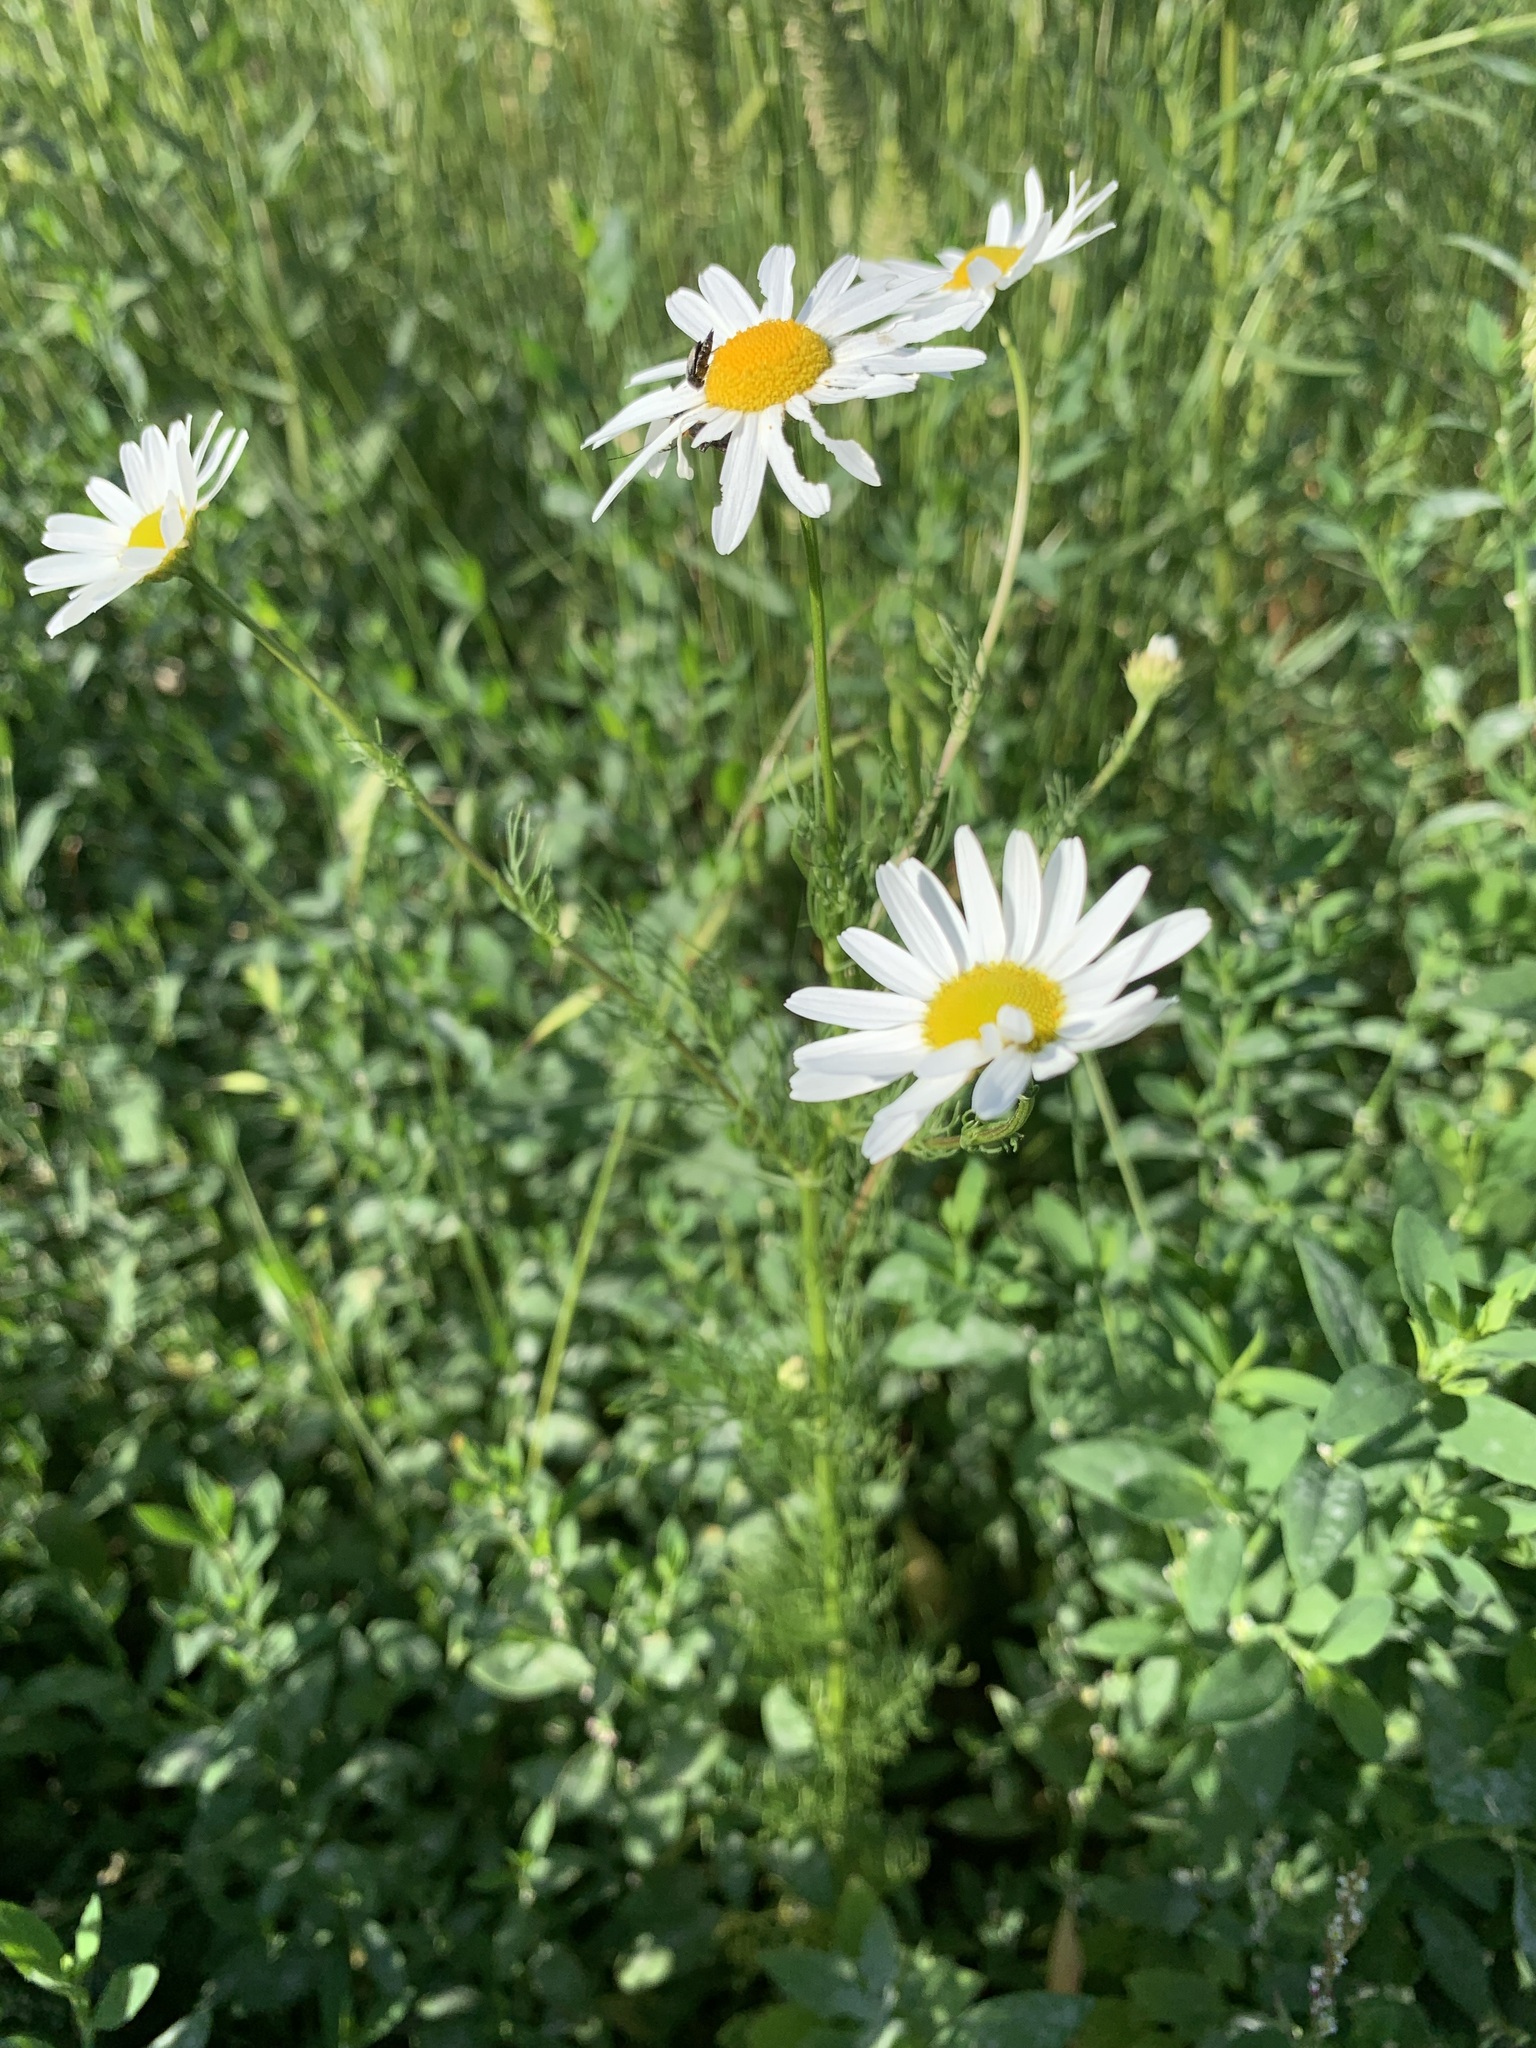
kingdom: Plantae
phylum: Tracheophyta
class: Magnoliopsida
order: Asterales
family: Asteraceae
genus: Tripleurospermum
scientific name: Tripleurospermum inodorum
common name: Scentless mayweed
